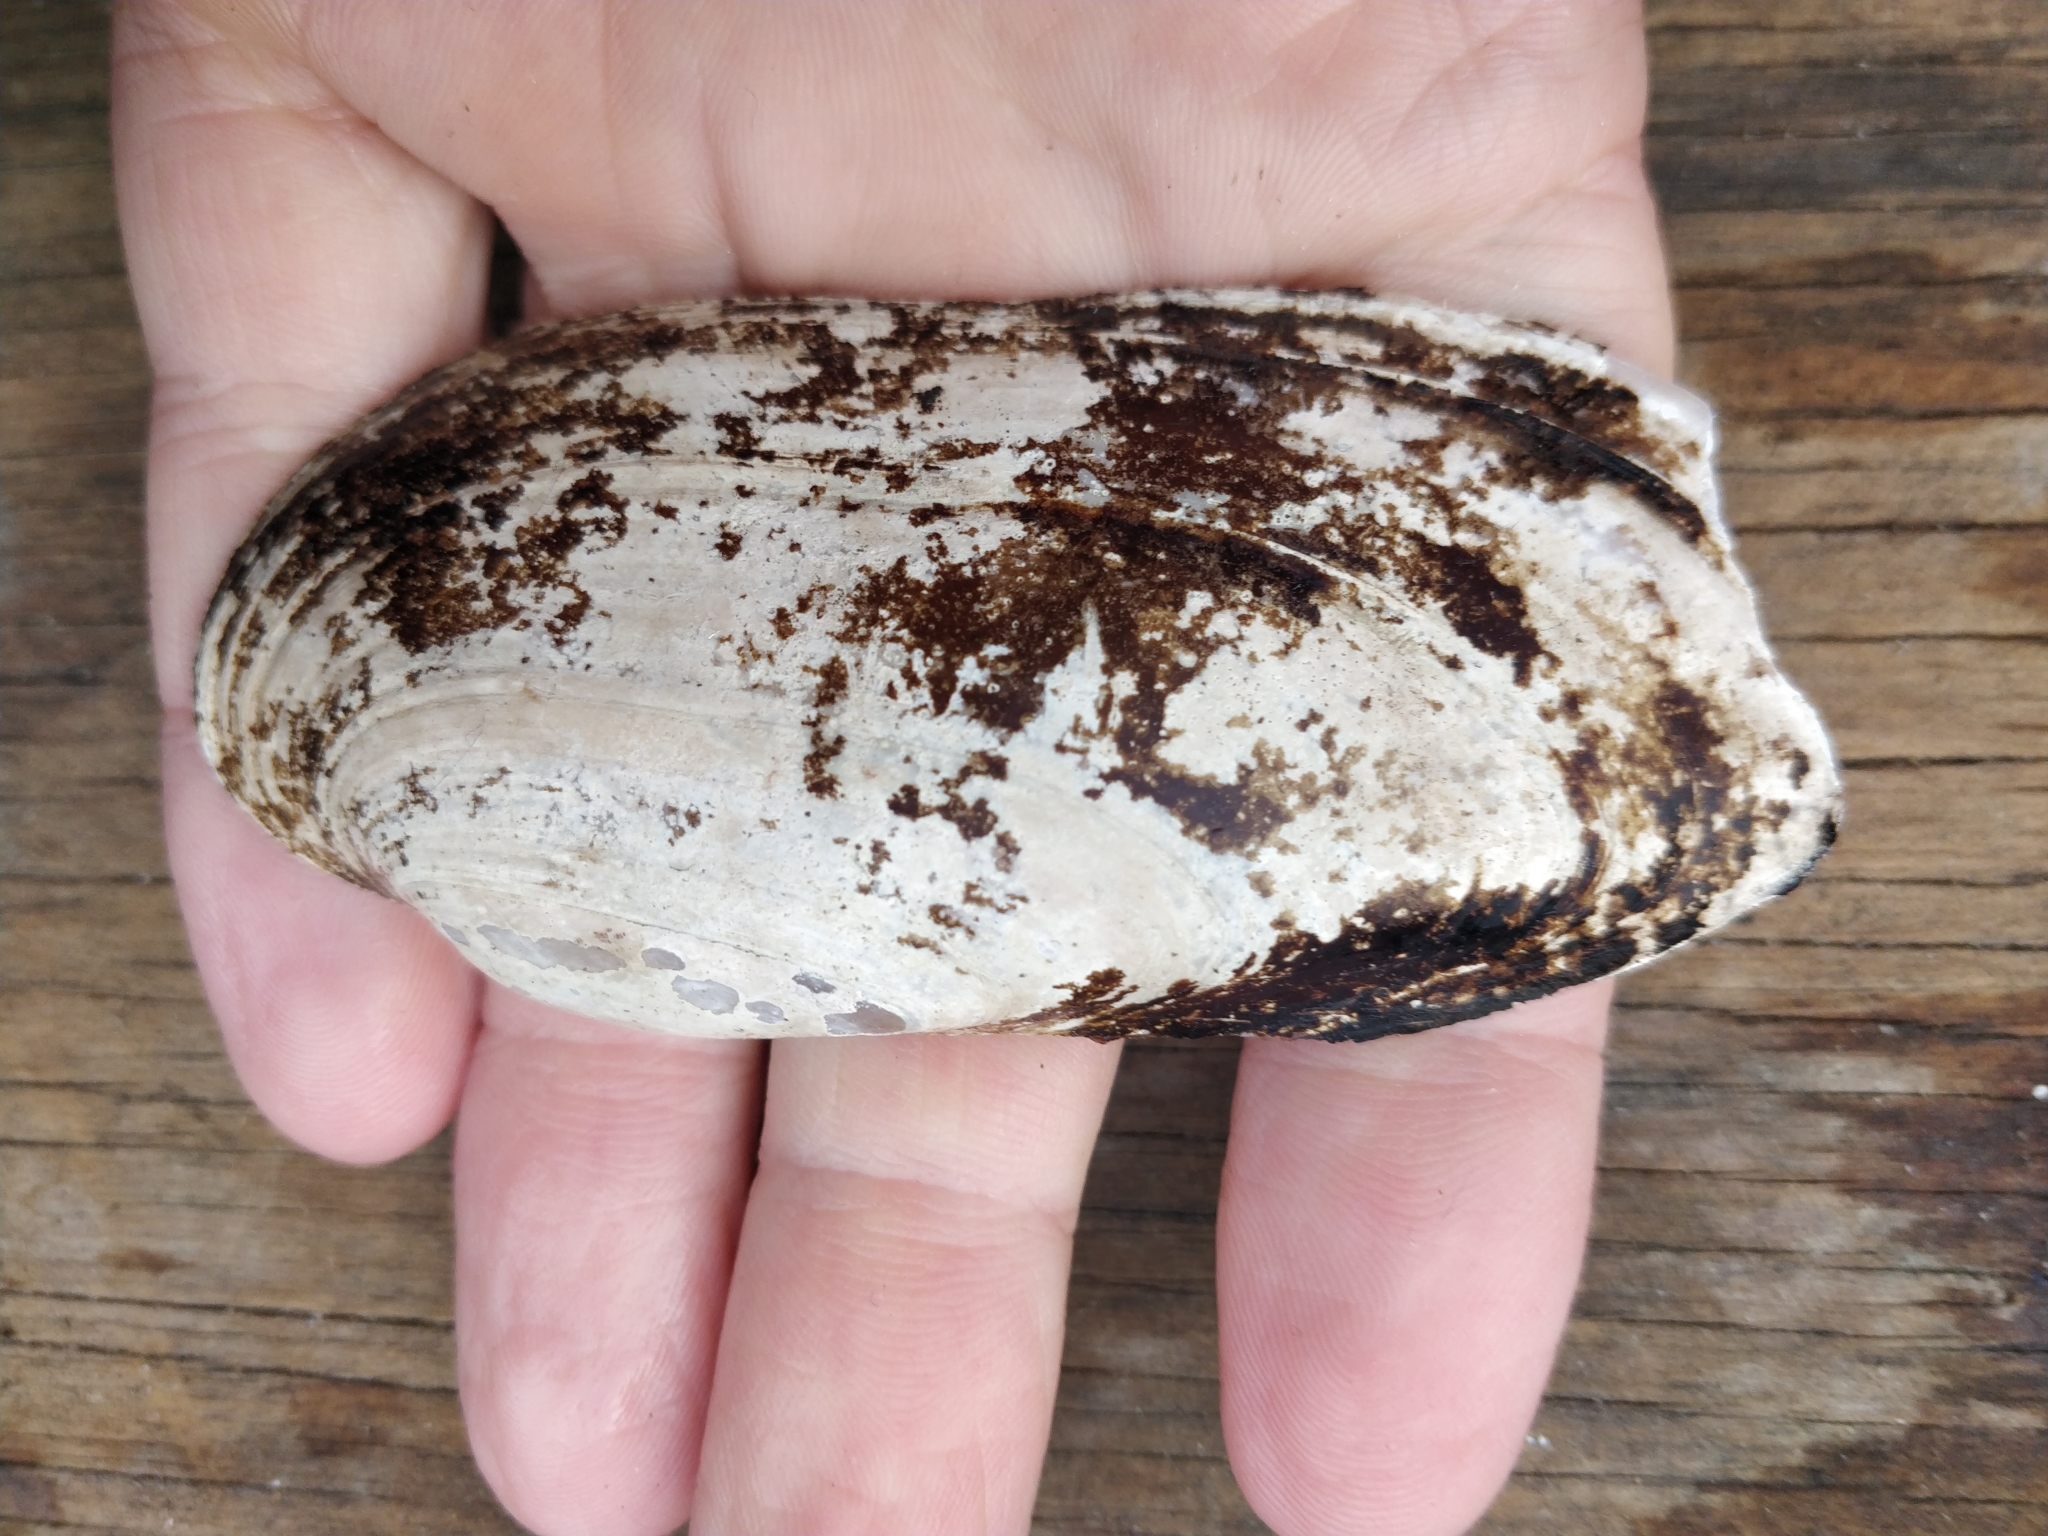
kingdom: Animalia
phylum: Mollusca
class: Bivalvia
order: Unionida
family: Unionidae
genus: Ligumia
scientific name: Ligumia recta
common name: Black sandshell
